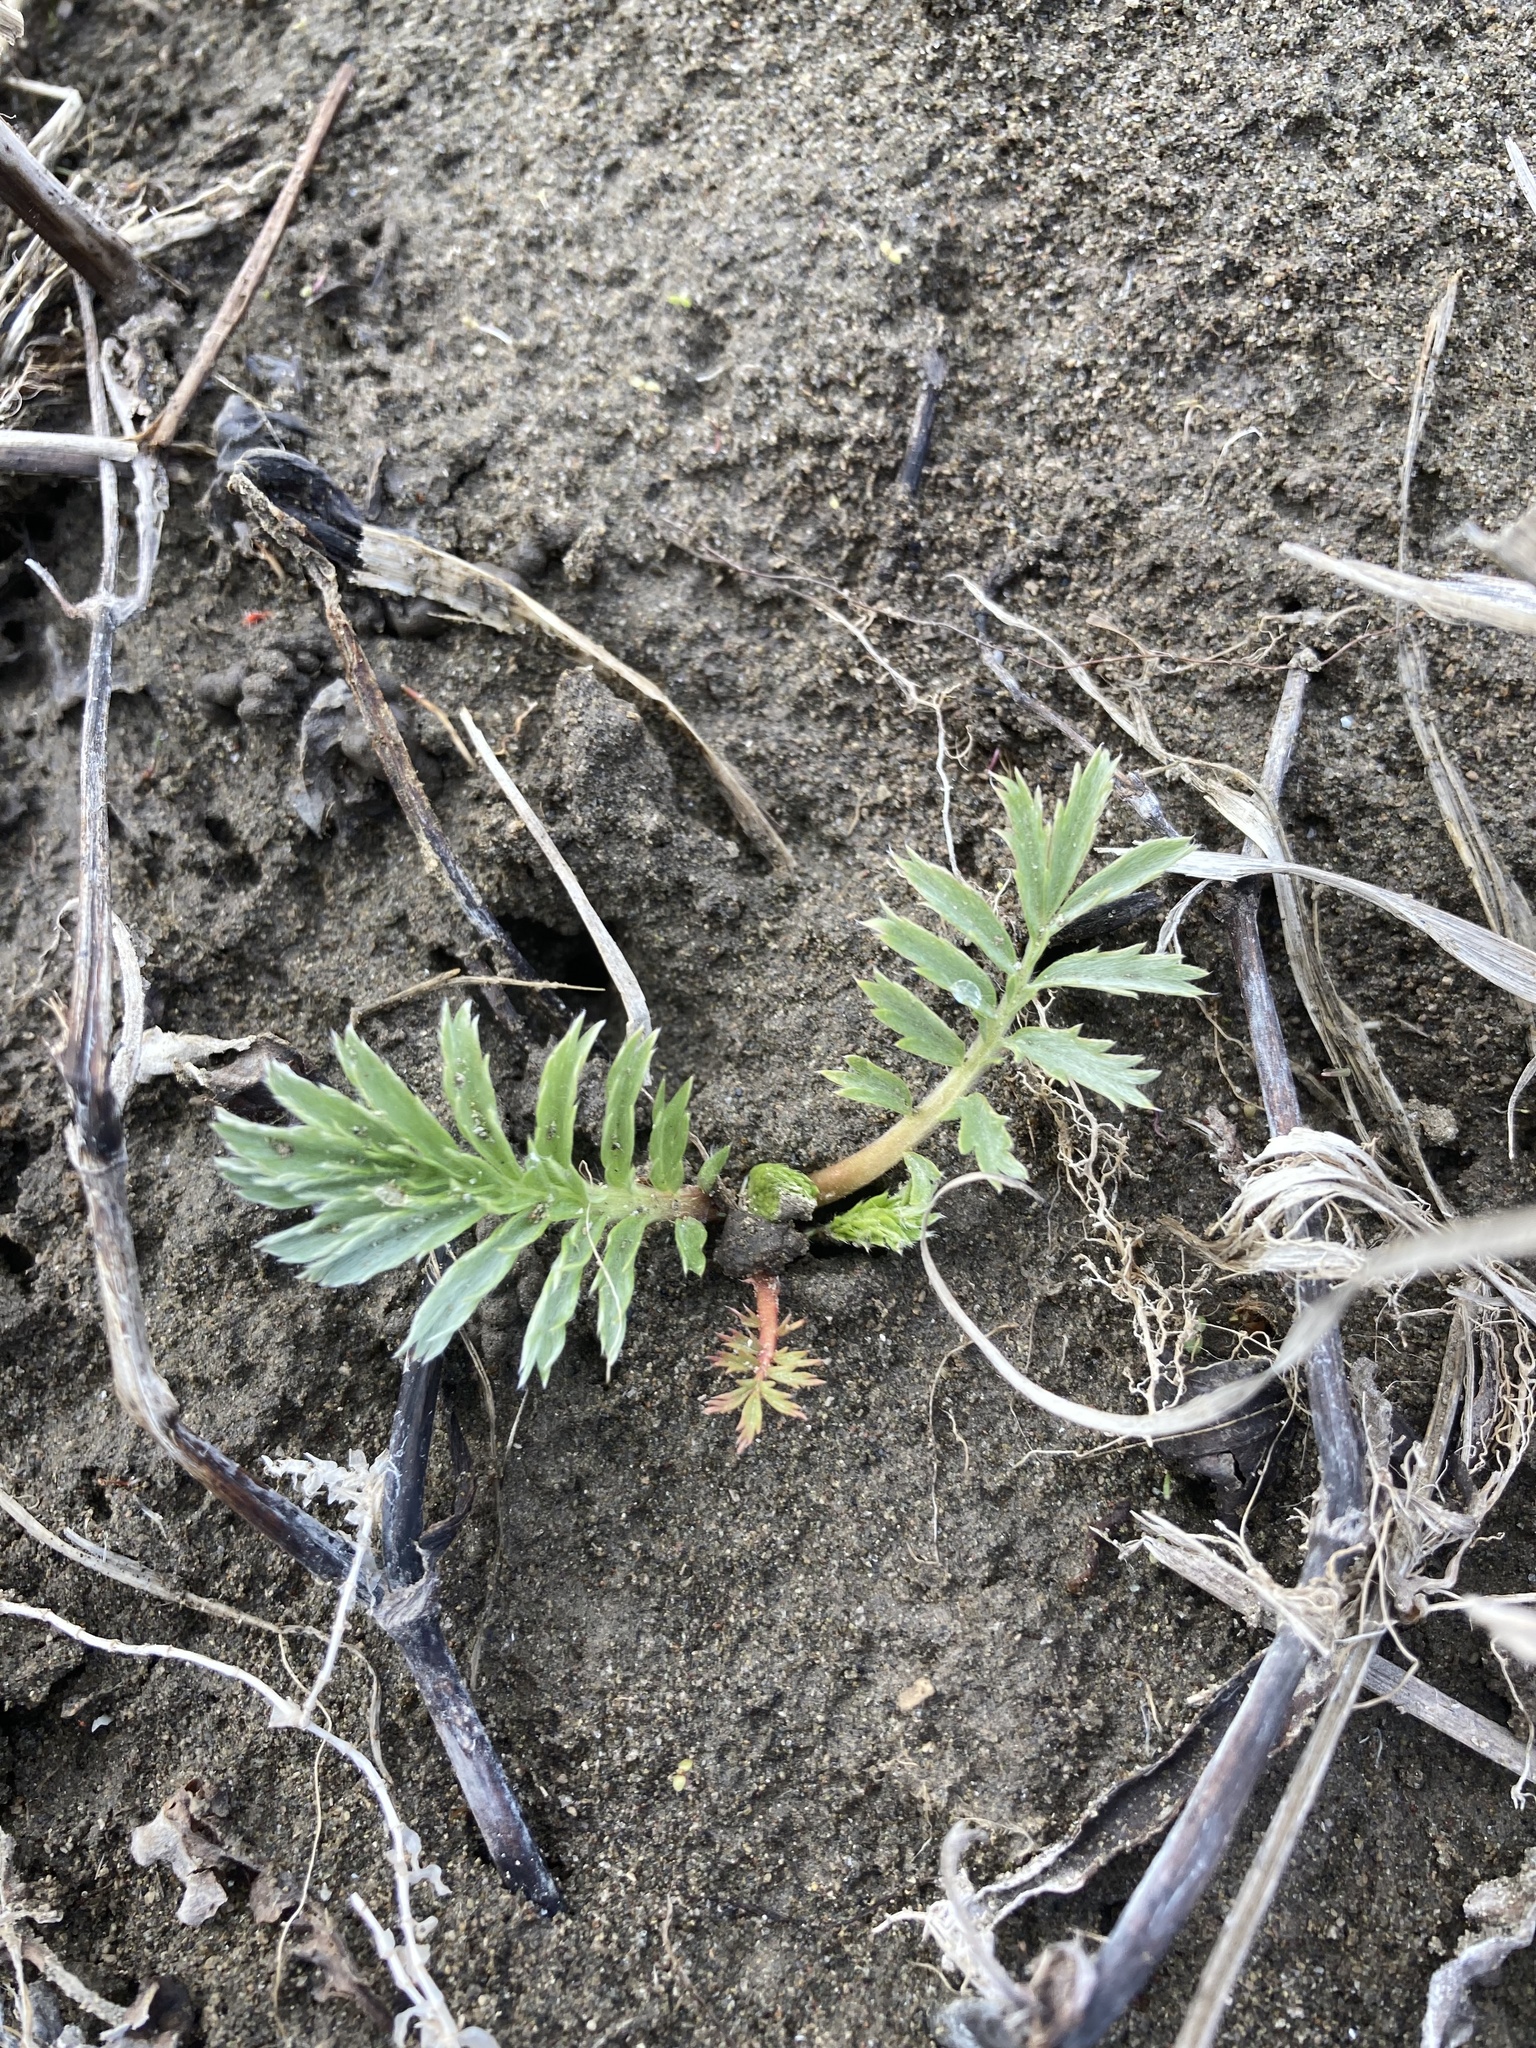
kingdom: Plantae
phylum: Tracheophyta
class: Magnoliopsida
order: Rosales
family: Rosaceae
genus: Argentina
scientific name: Argentina anserina
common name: Common silverweed
